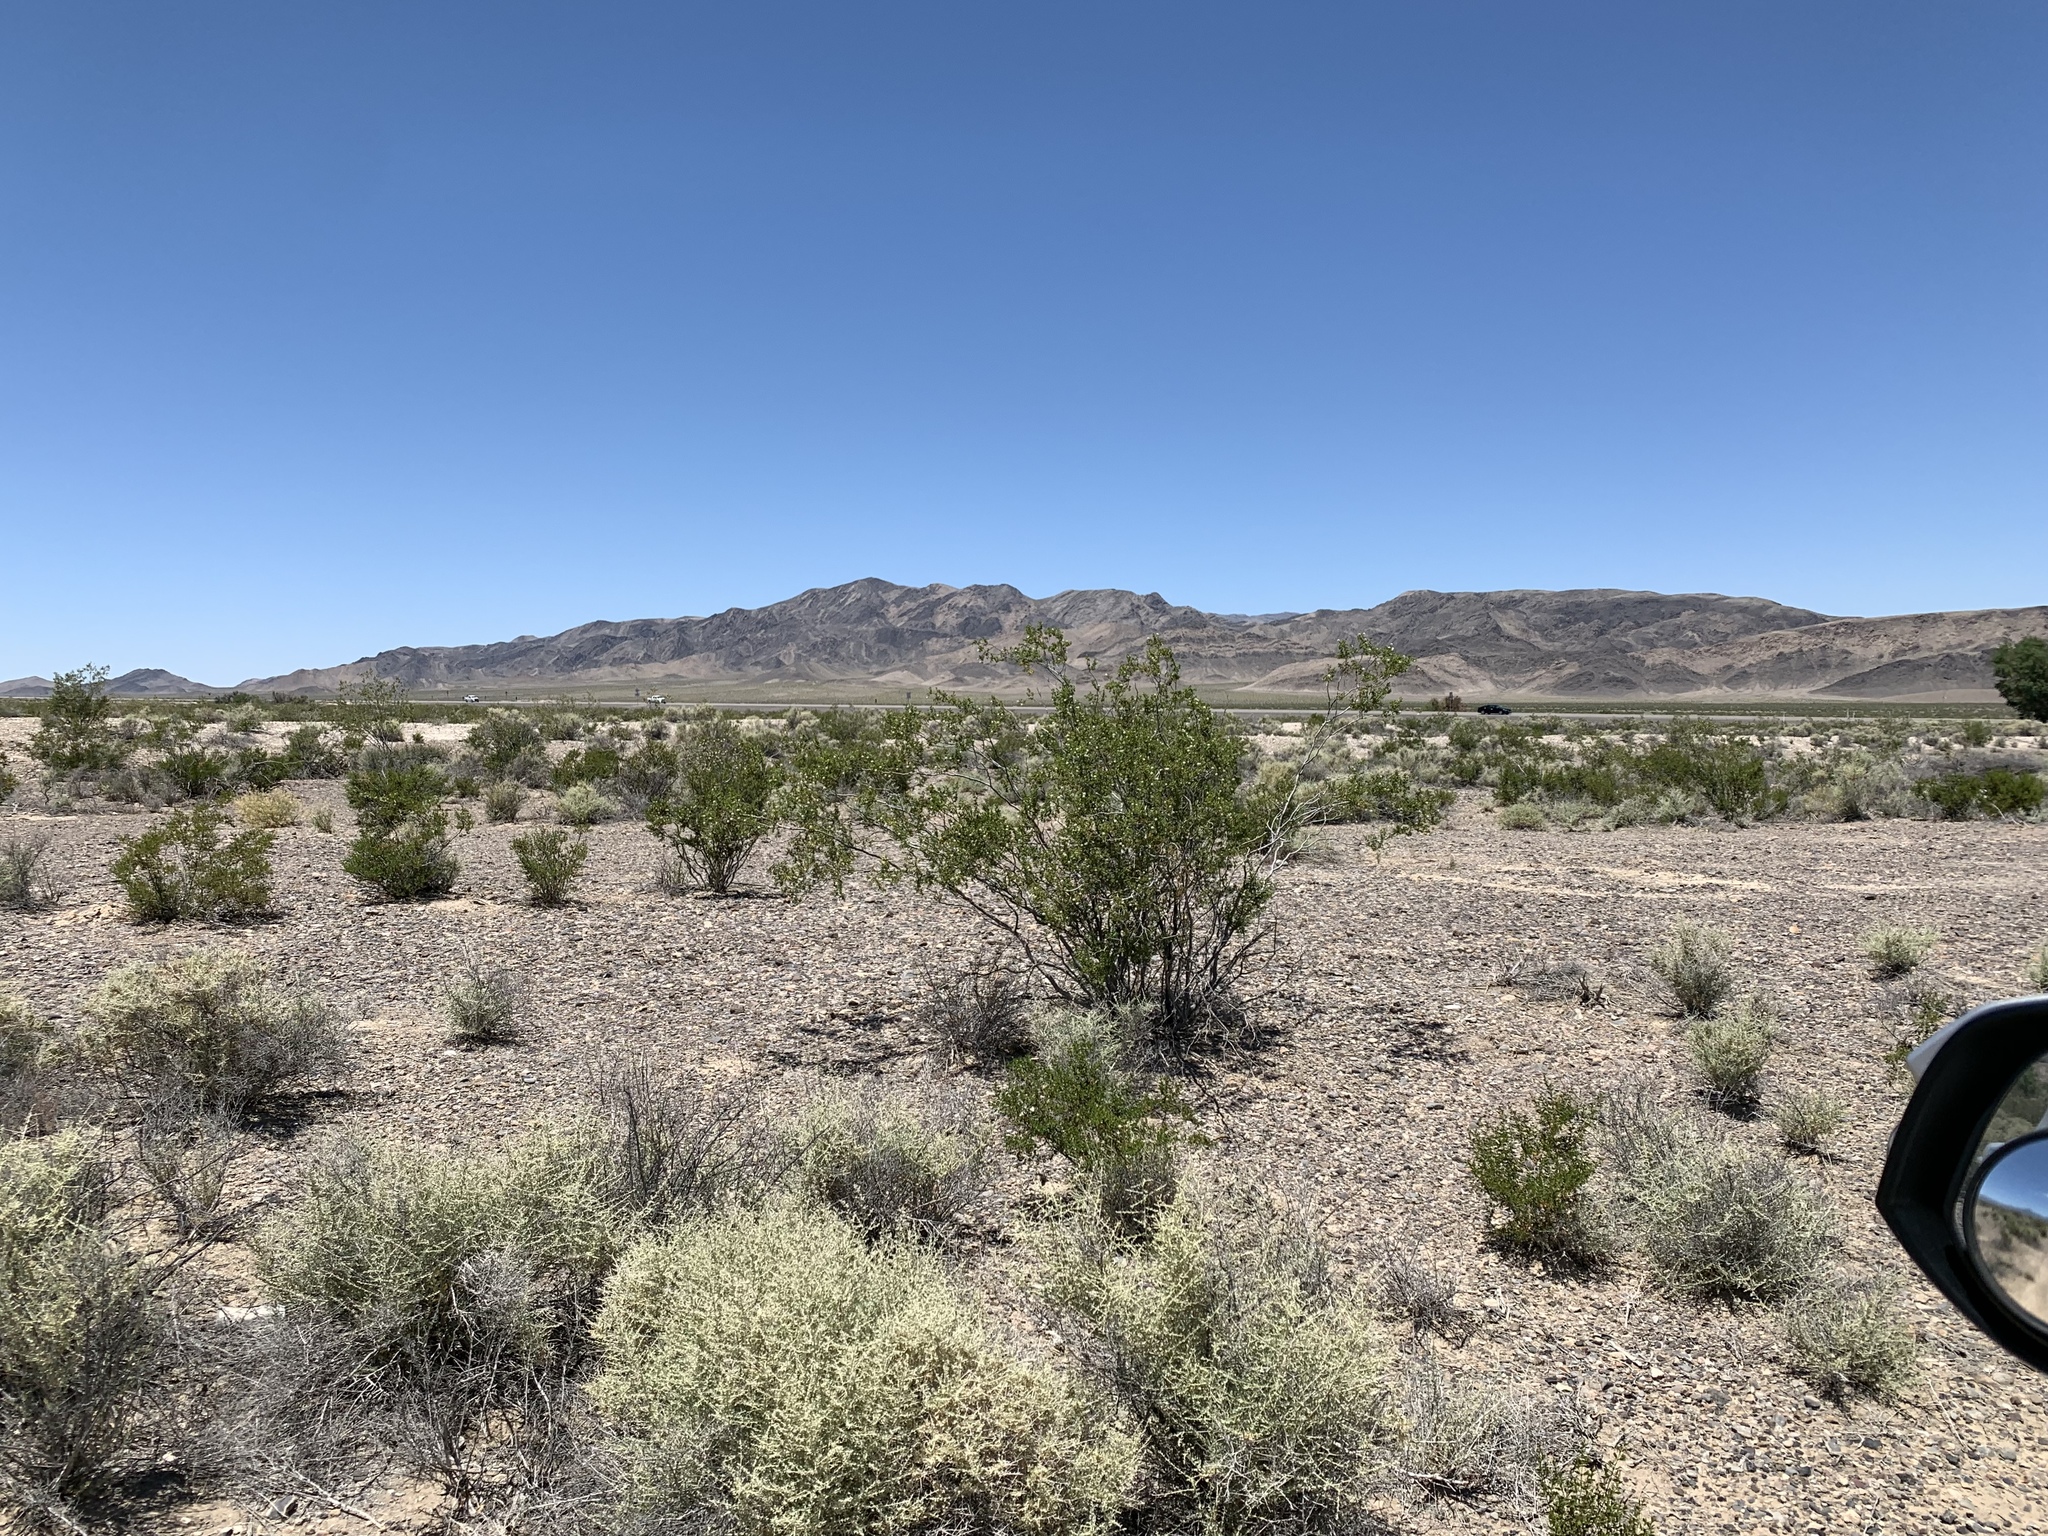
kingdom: Plantae
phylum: Tracheophyta
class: Magnoliopsida
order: Zygophyllales
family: Zygophyllaceae
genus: Larrea
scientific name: Larrea tridentata
